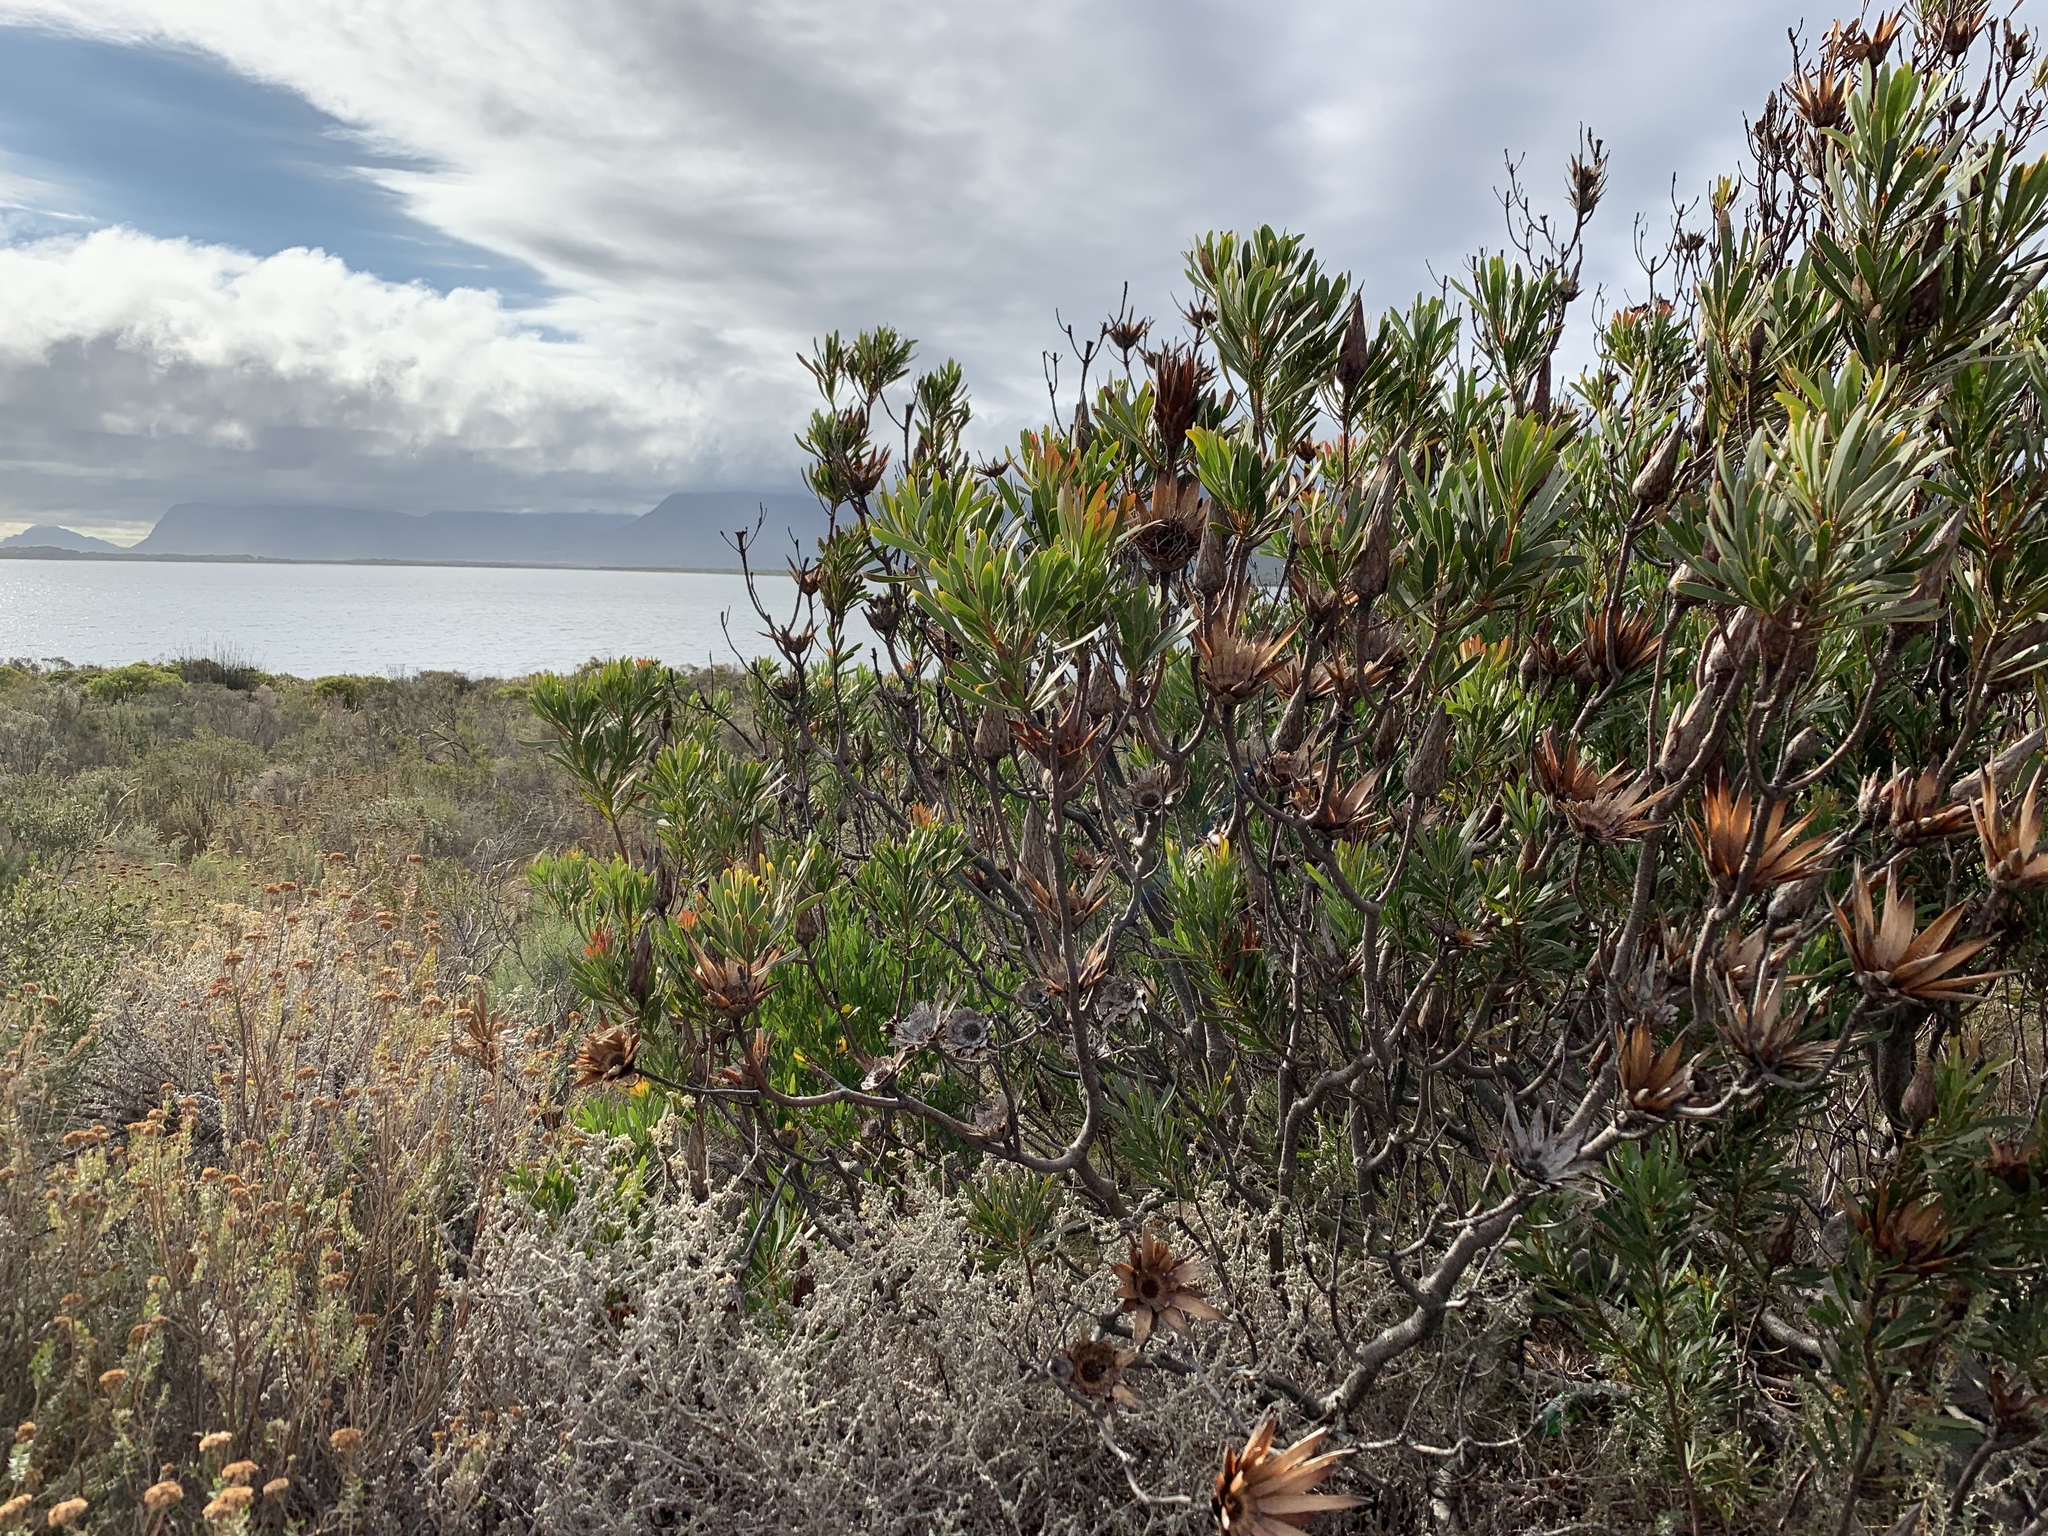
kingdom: Plantae
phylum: Tracheophyta
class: Magnoliopsida
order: Proteales
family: Proteaceae
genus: Protea
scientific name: Protea repens
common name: Sugarbush
